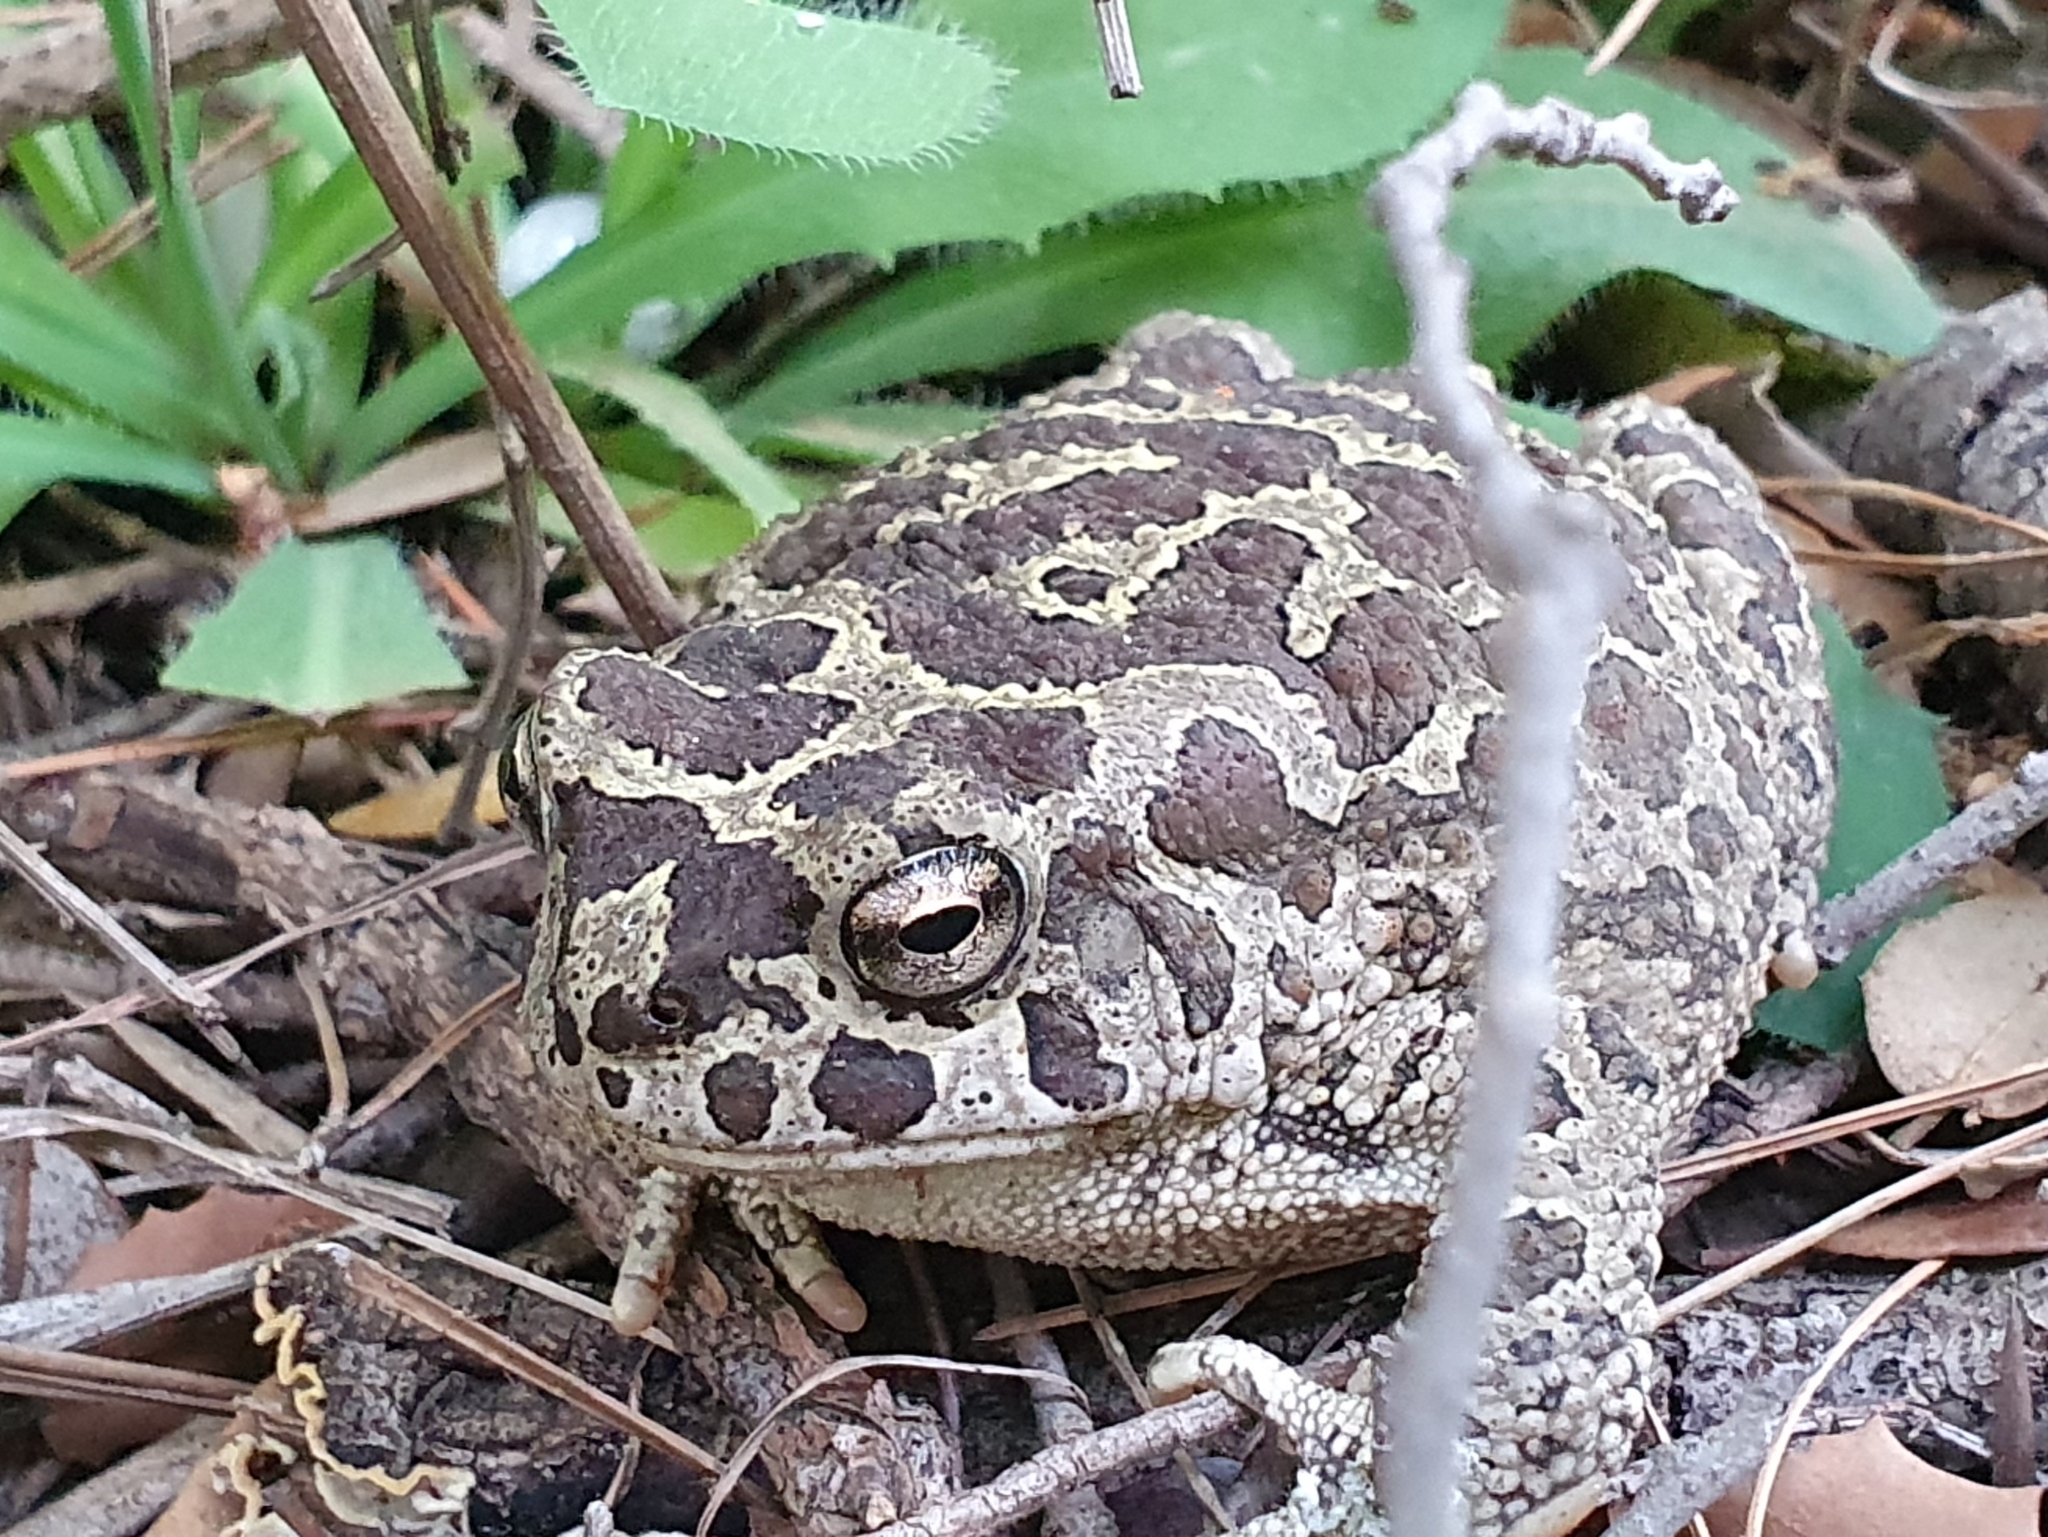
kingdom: Animalia
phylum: Chordata
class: Amphibia
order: Anura
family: Bufonidae
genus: Sclerophrys
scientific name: Sclerophrys mauritanica
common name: Berber toad
